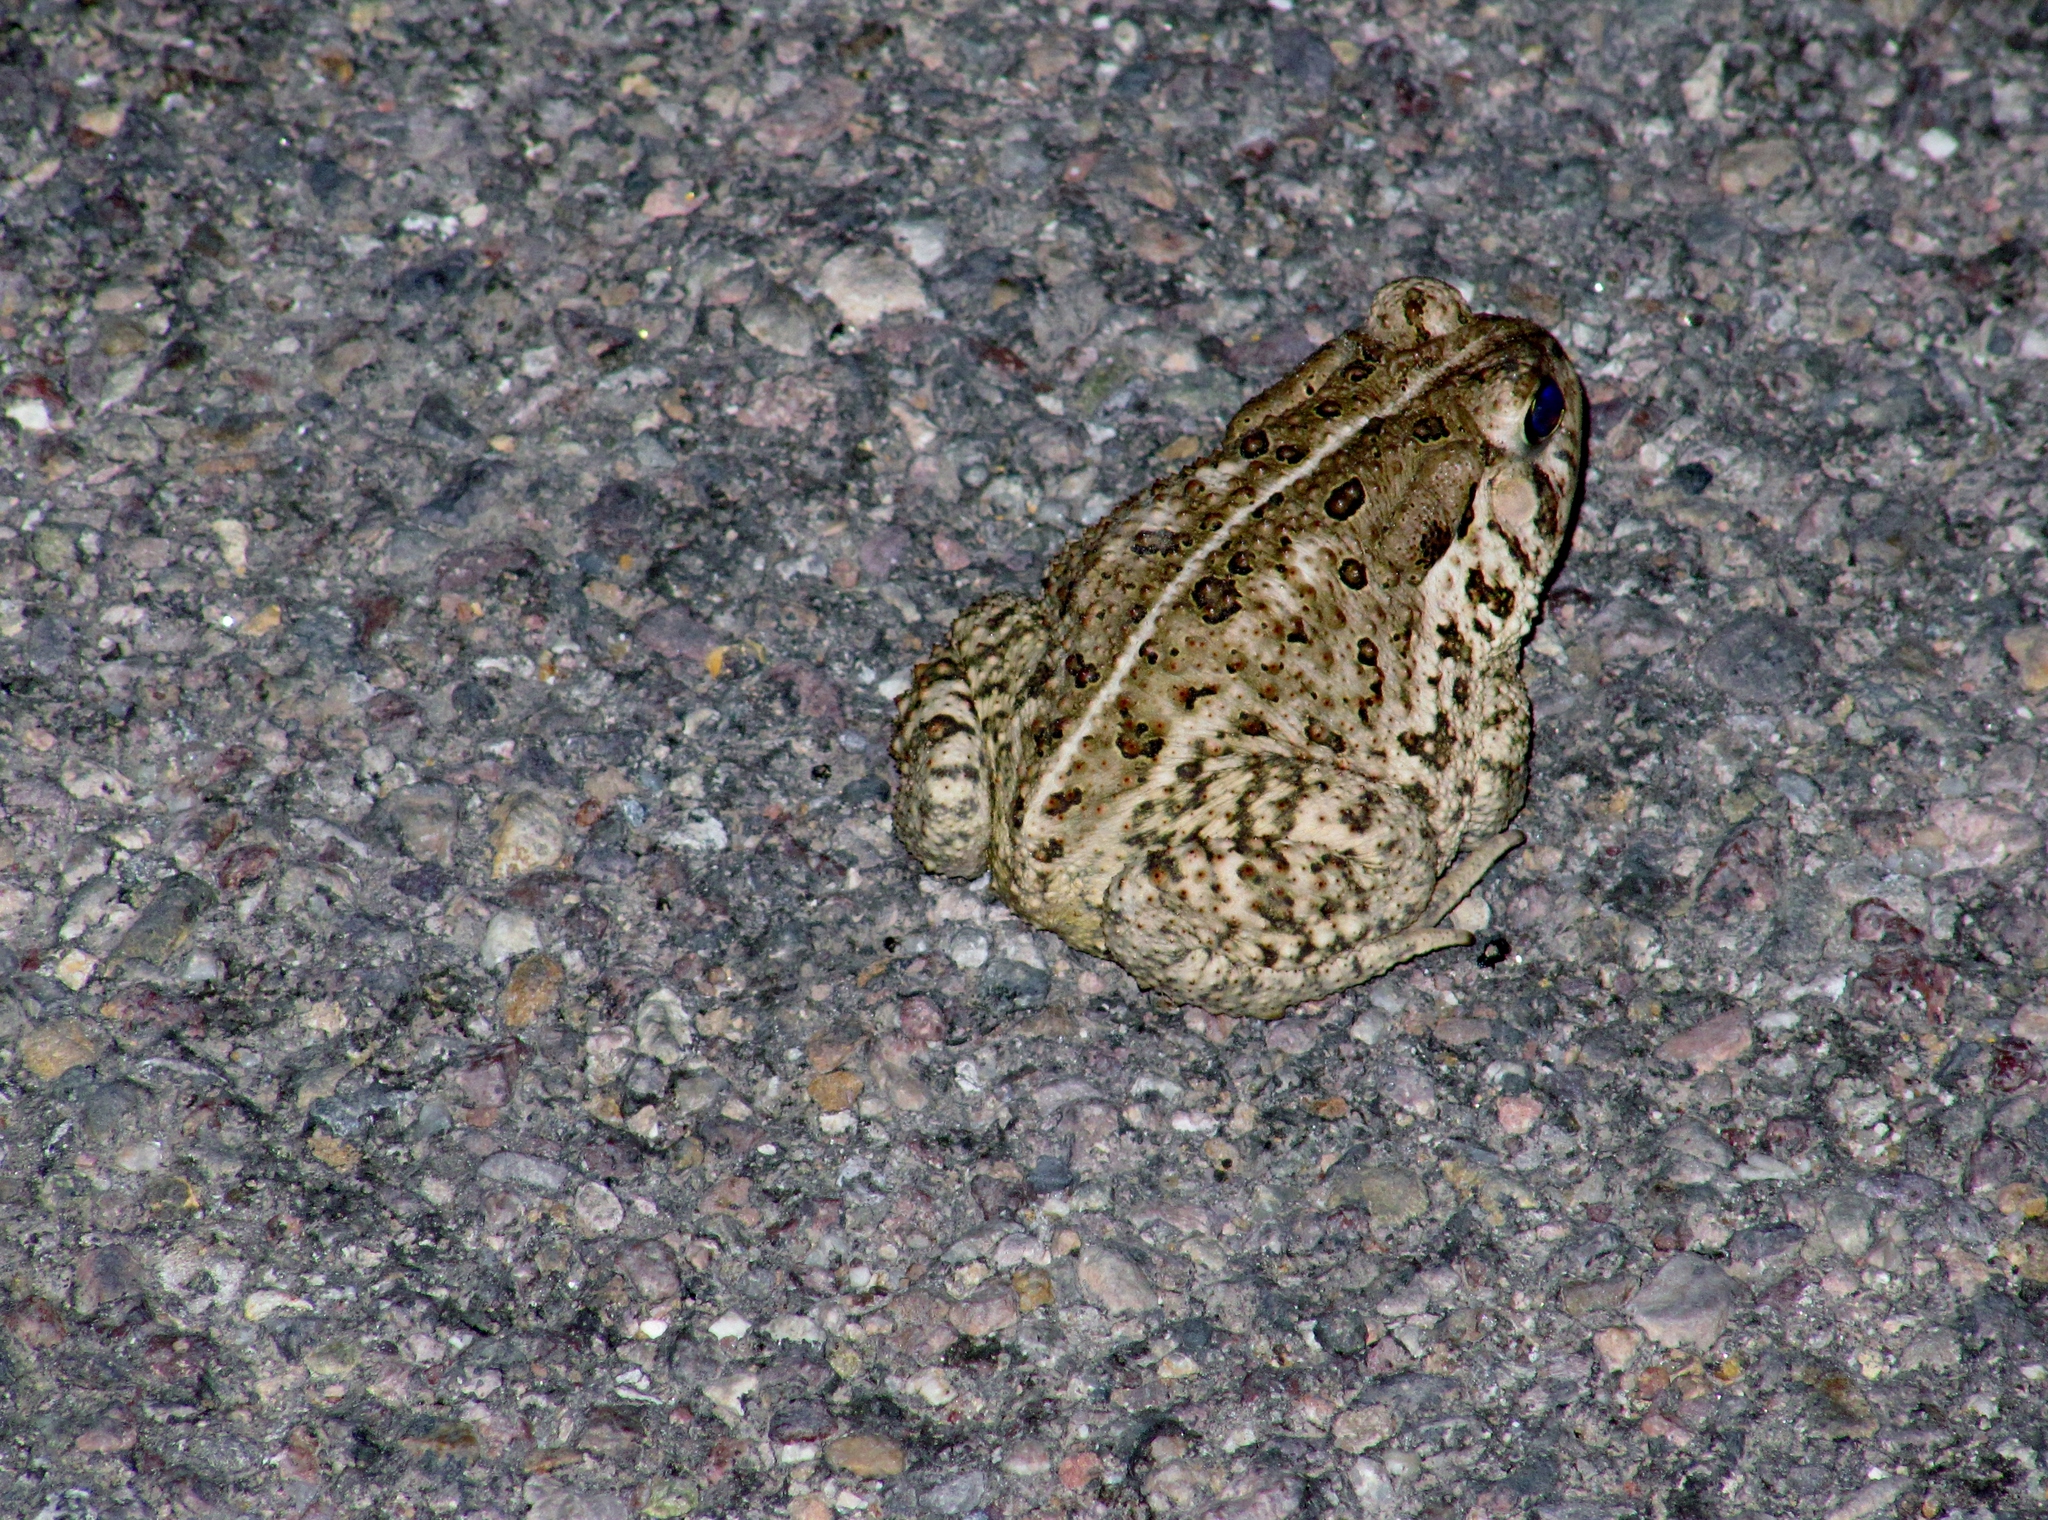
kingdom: Animalia
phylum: Chordata
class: Amphibia
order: Anura
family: Bufonidae
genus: Anaxyrus
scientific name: Anaxyrus woodhousii
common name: Woodhouse's toad
